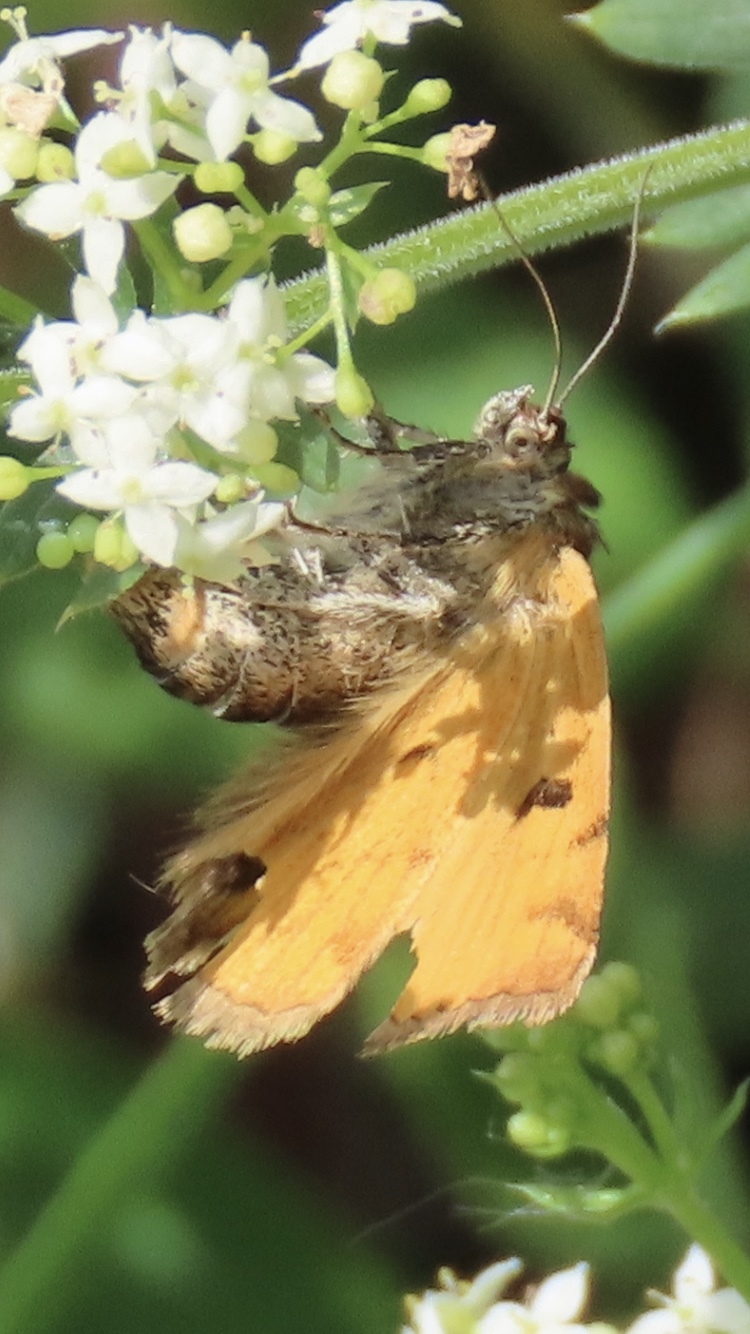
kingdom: Animalia
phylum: Arthropoda
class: Insecta
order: Lepidoptera
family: Erebidae
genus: Euclidia
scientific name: Euclidia glyphica
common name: Burnet companion
